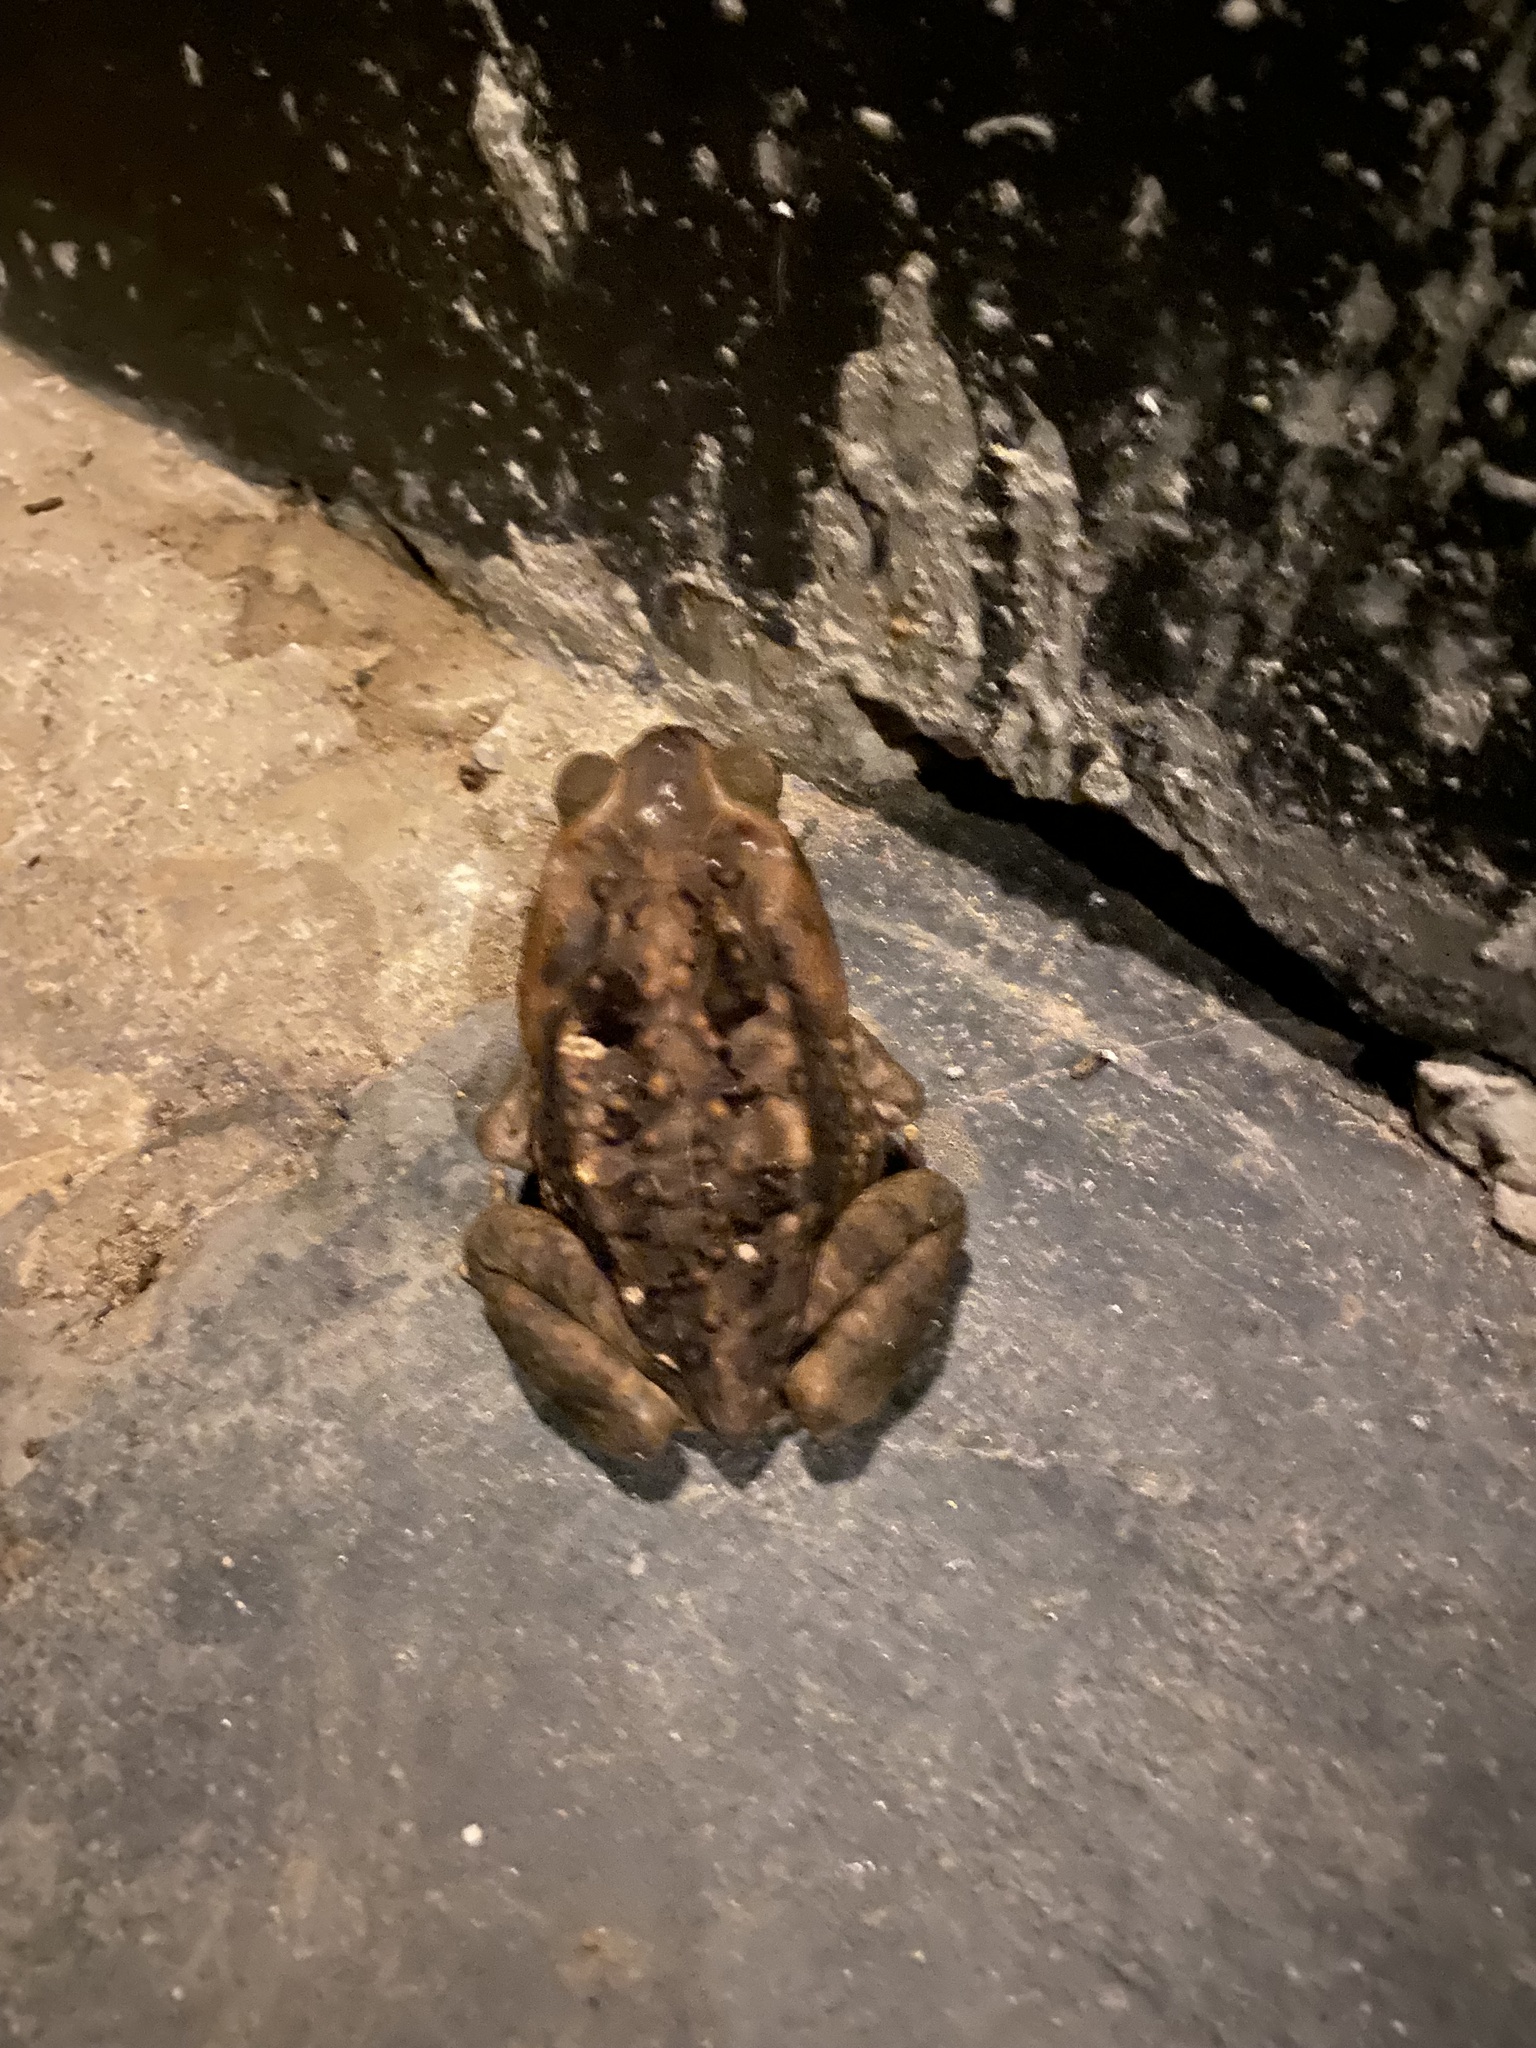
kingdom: Animalia
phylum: Chordata
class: Amphibia
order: Anura
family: Bufonidae
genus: Rhinella
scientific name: Rhinella horribilis
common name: Mesoamerican cane toad
